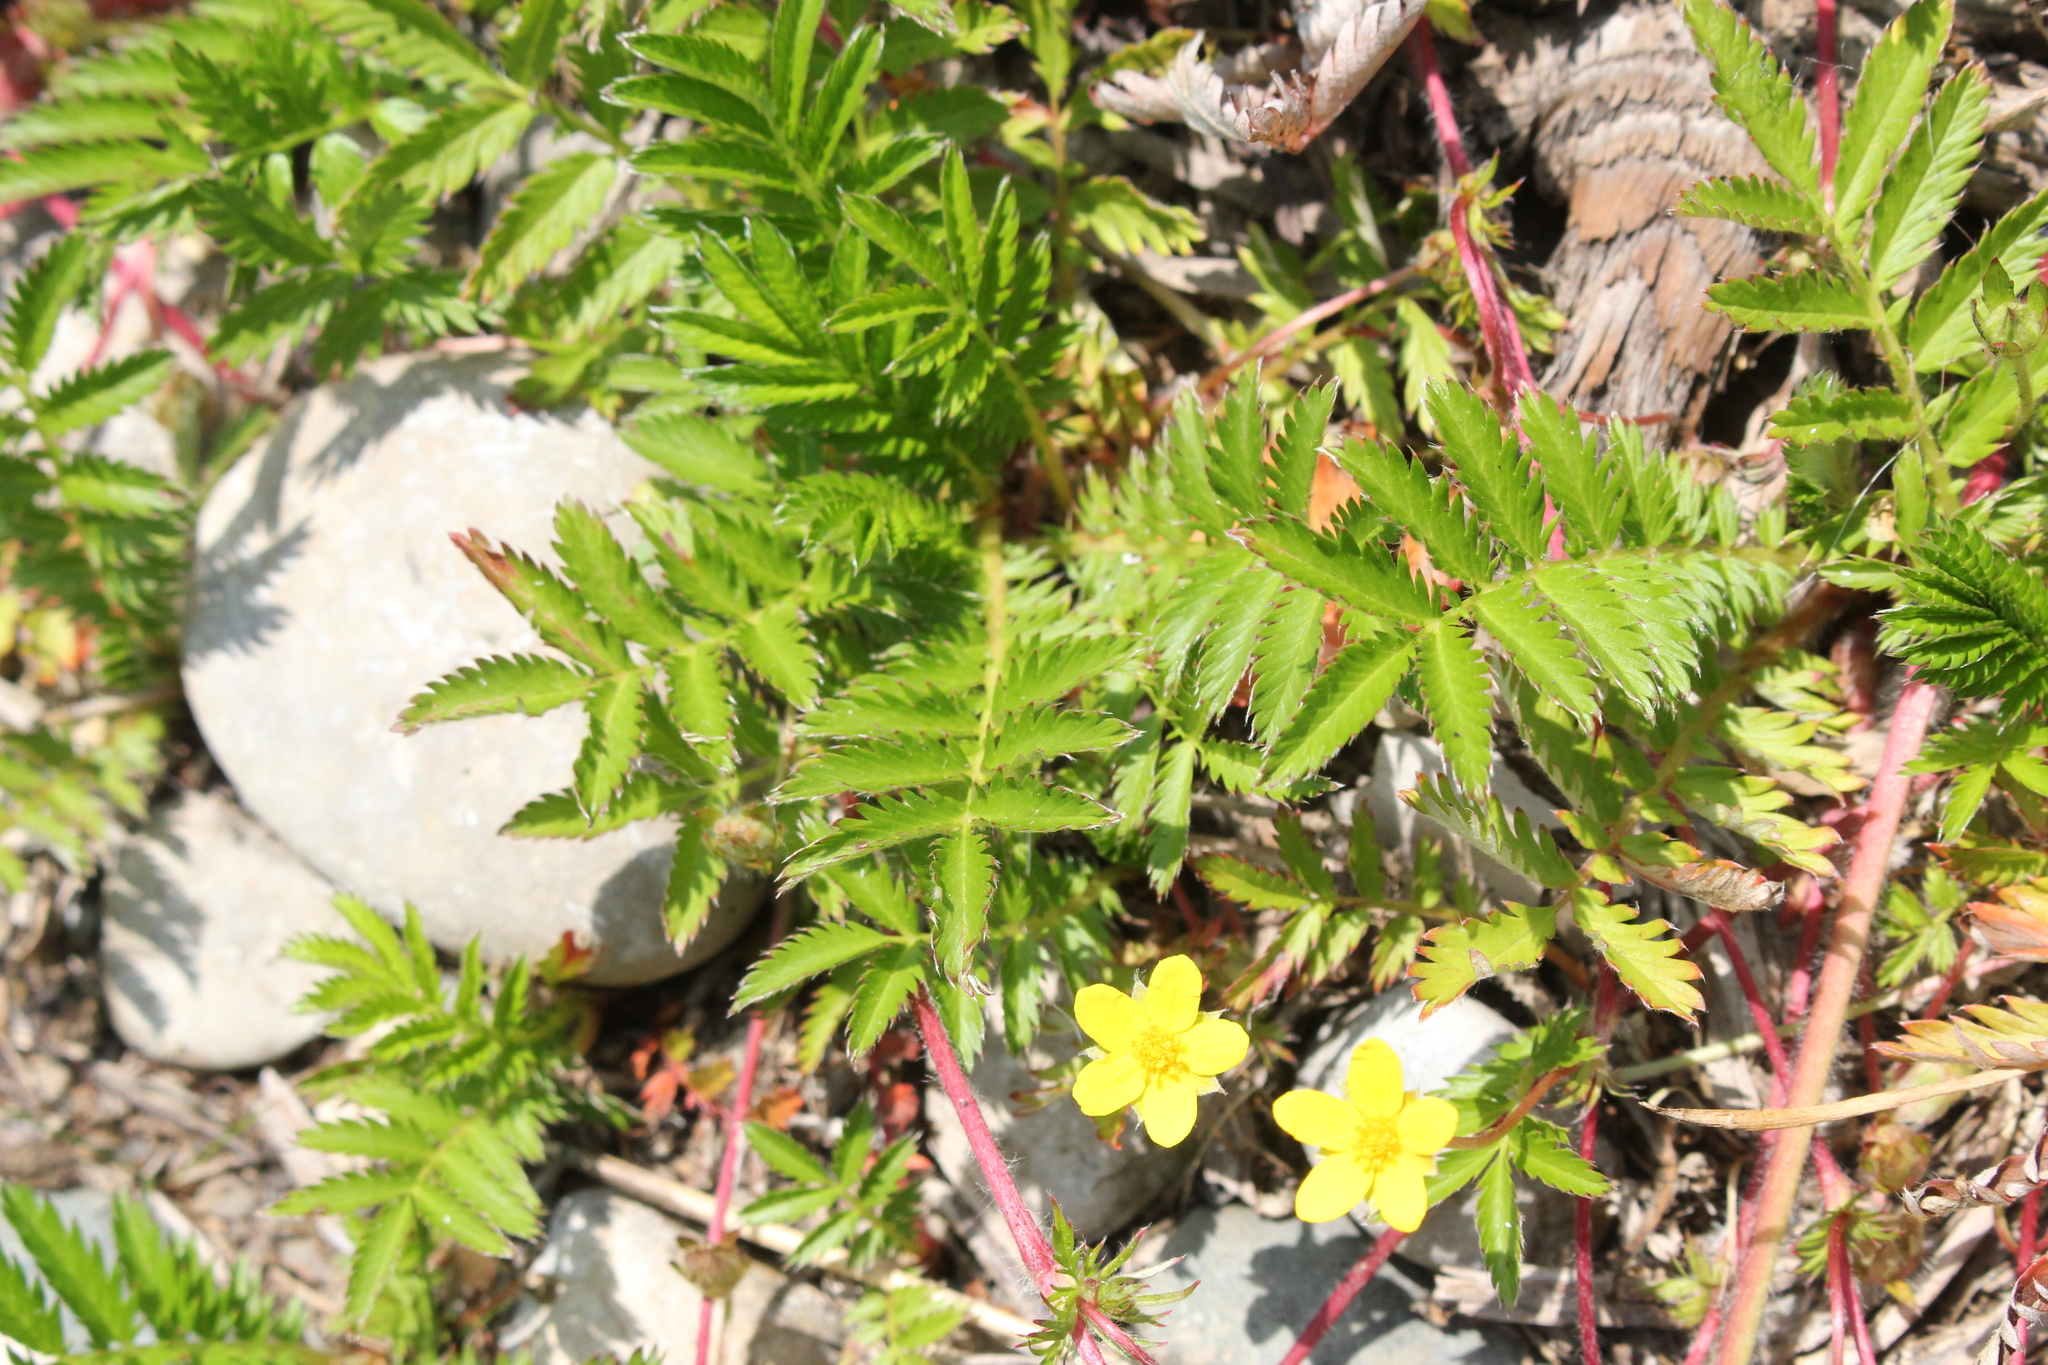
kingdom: Plantae
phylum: Tracheophyta
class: Magnoliopsida
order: Rosales
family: Rosaceae
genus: Argentina
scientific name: Argentina anserina
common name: Common silverweed
